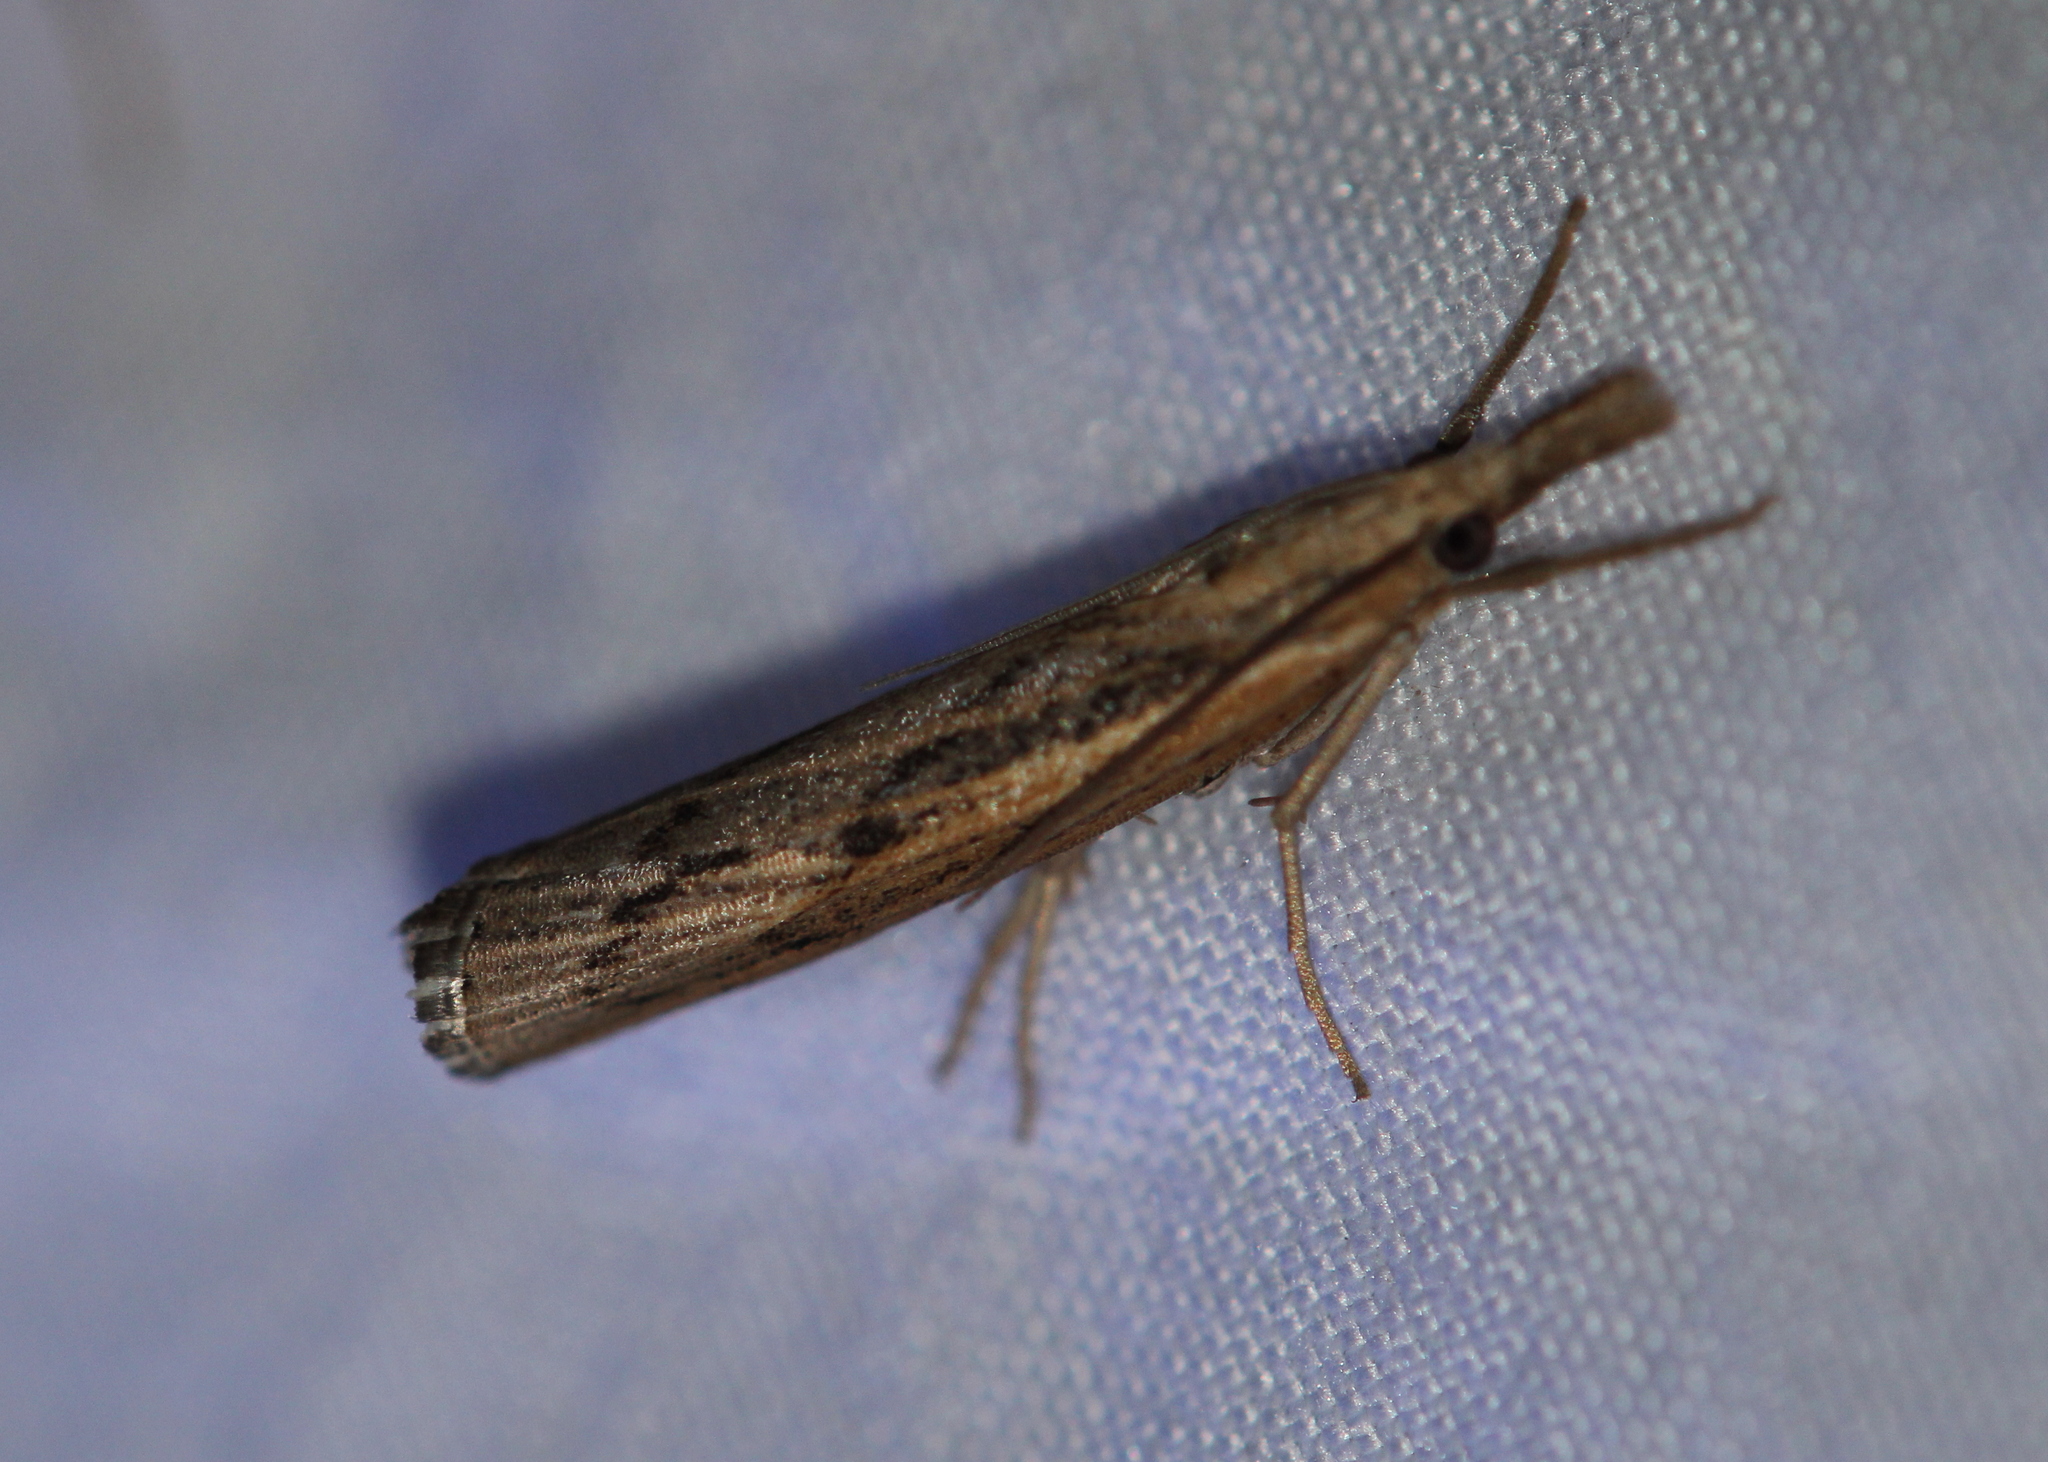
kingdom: Animalia
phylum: Arthropoda
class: Insecta
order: Lepidoptera
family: Crambidae
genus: Pediasia
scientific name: Pediasia trisecta
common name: Sod webworm moth
